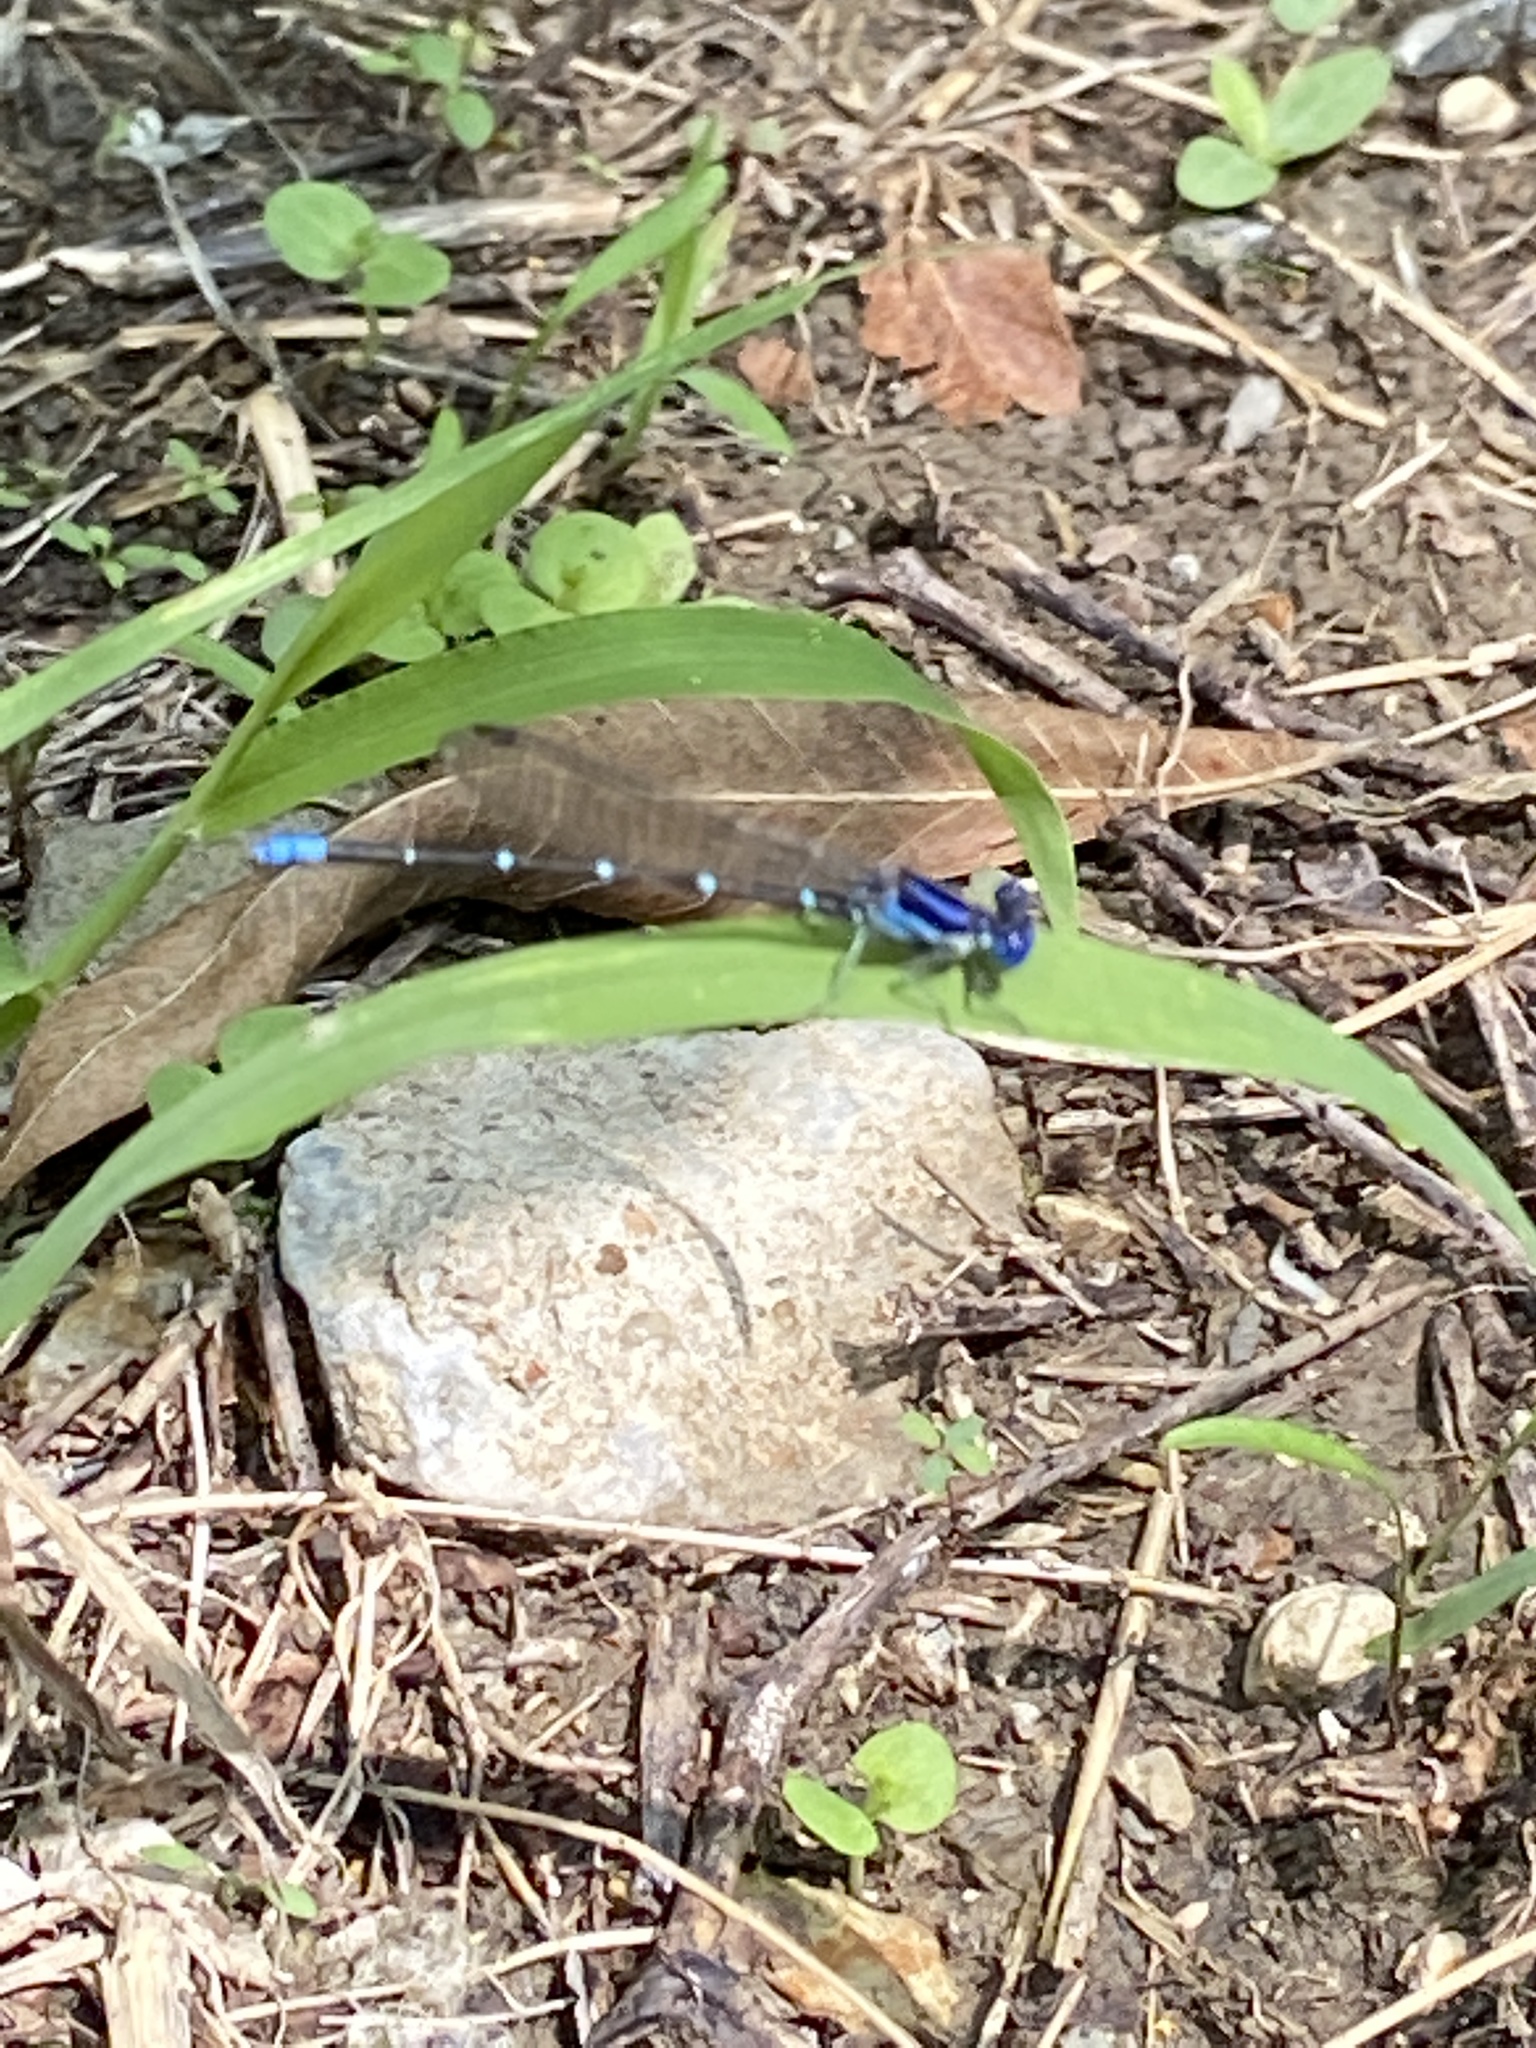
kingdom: Animalia
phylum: Arthropoda
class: Insecta
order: Odonata
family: Coenagrionidae
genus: Argia
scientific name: Argia sedula
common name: Blue-ringed dancer
